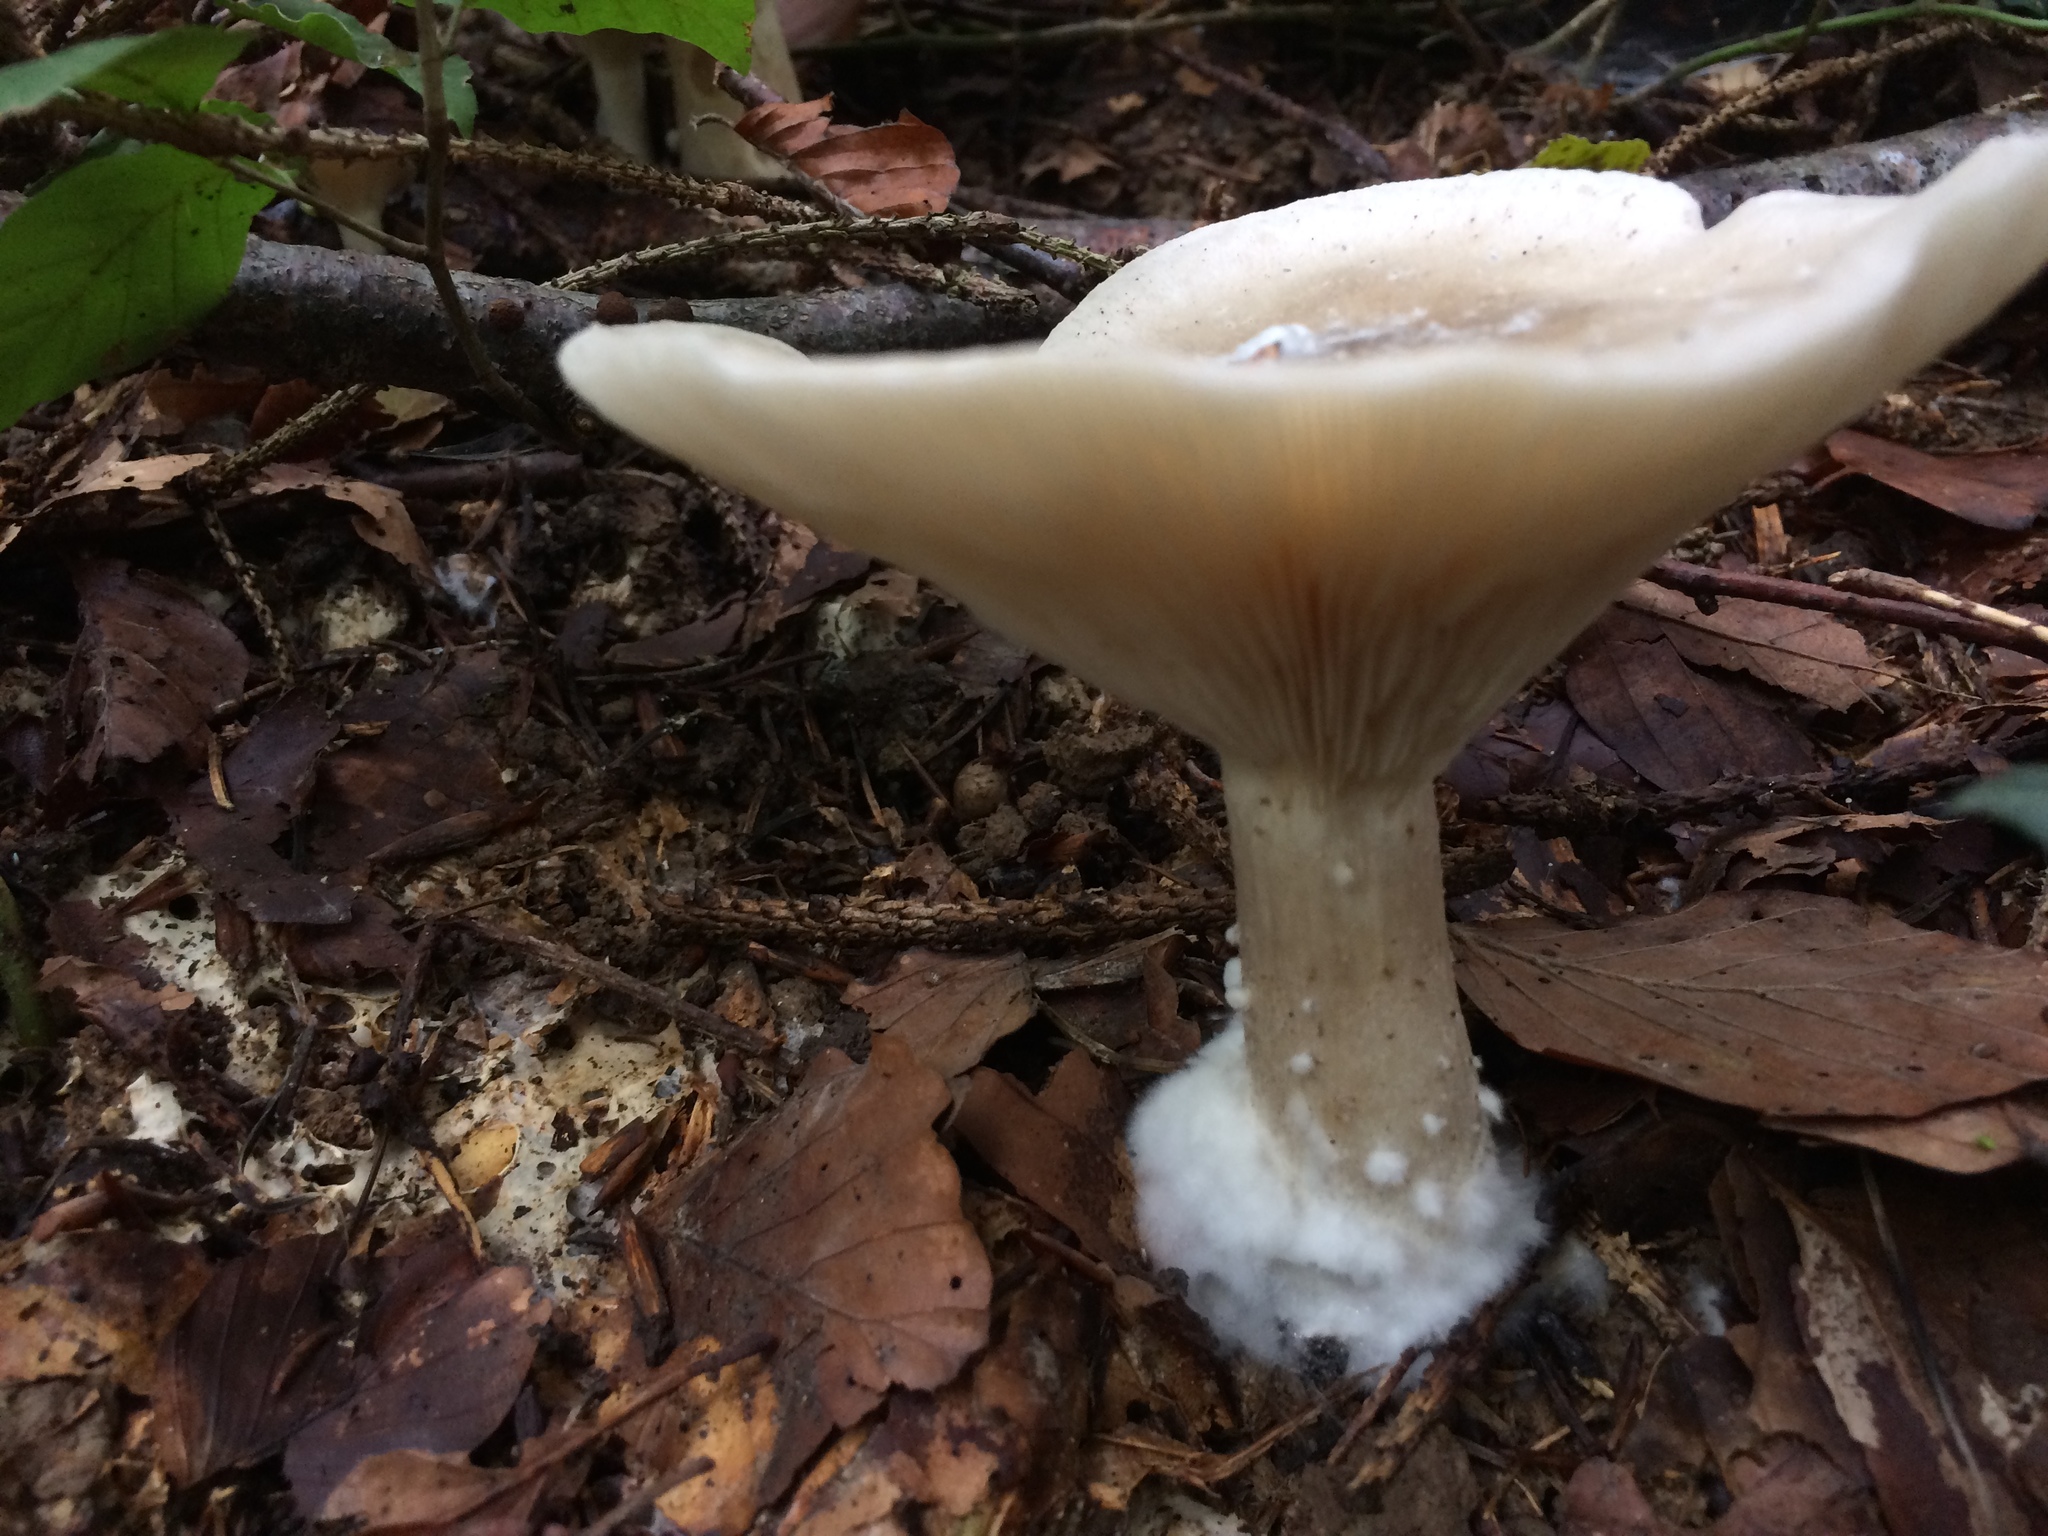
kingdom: Fungi
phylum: Basidiomycota
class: Agaricomycetes
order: Agaricales
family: Tricholomataceae
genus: Clitocybe
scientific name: Clitocybe nebularis
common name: Clouded agaric
